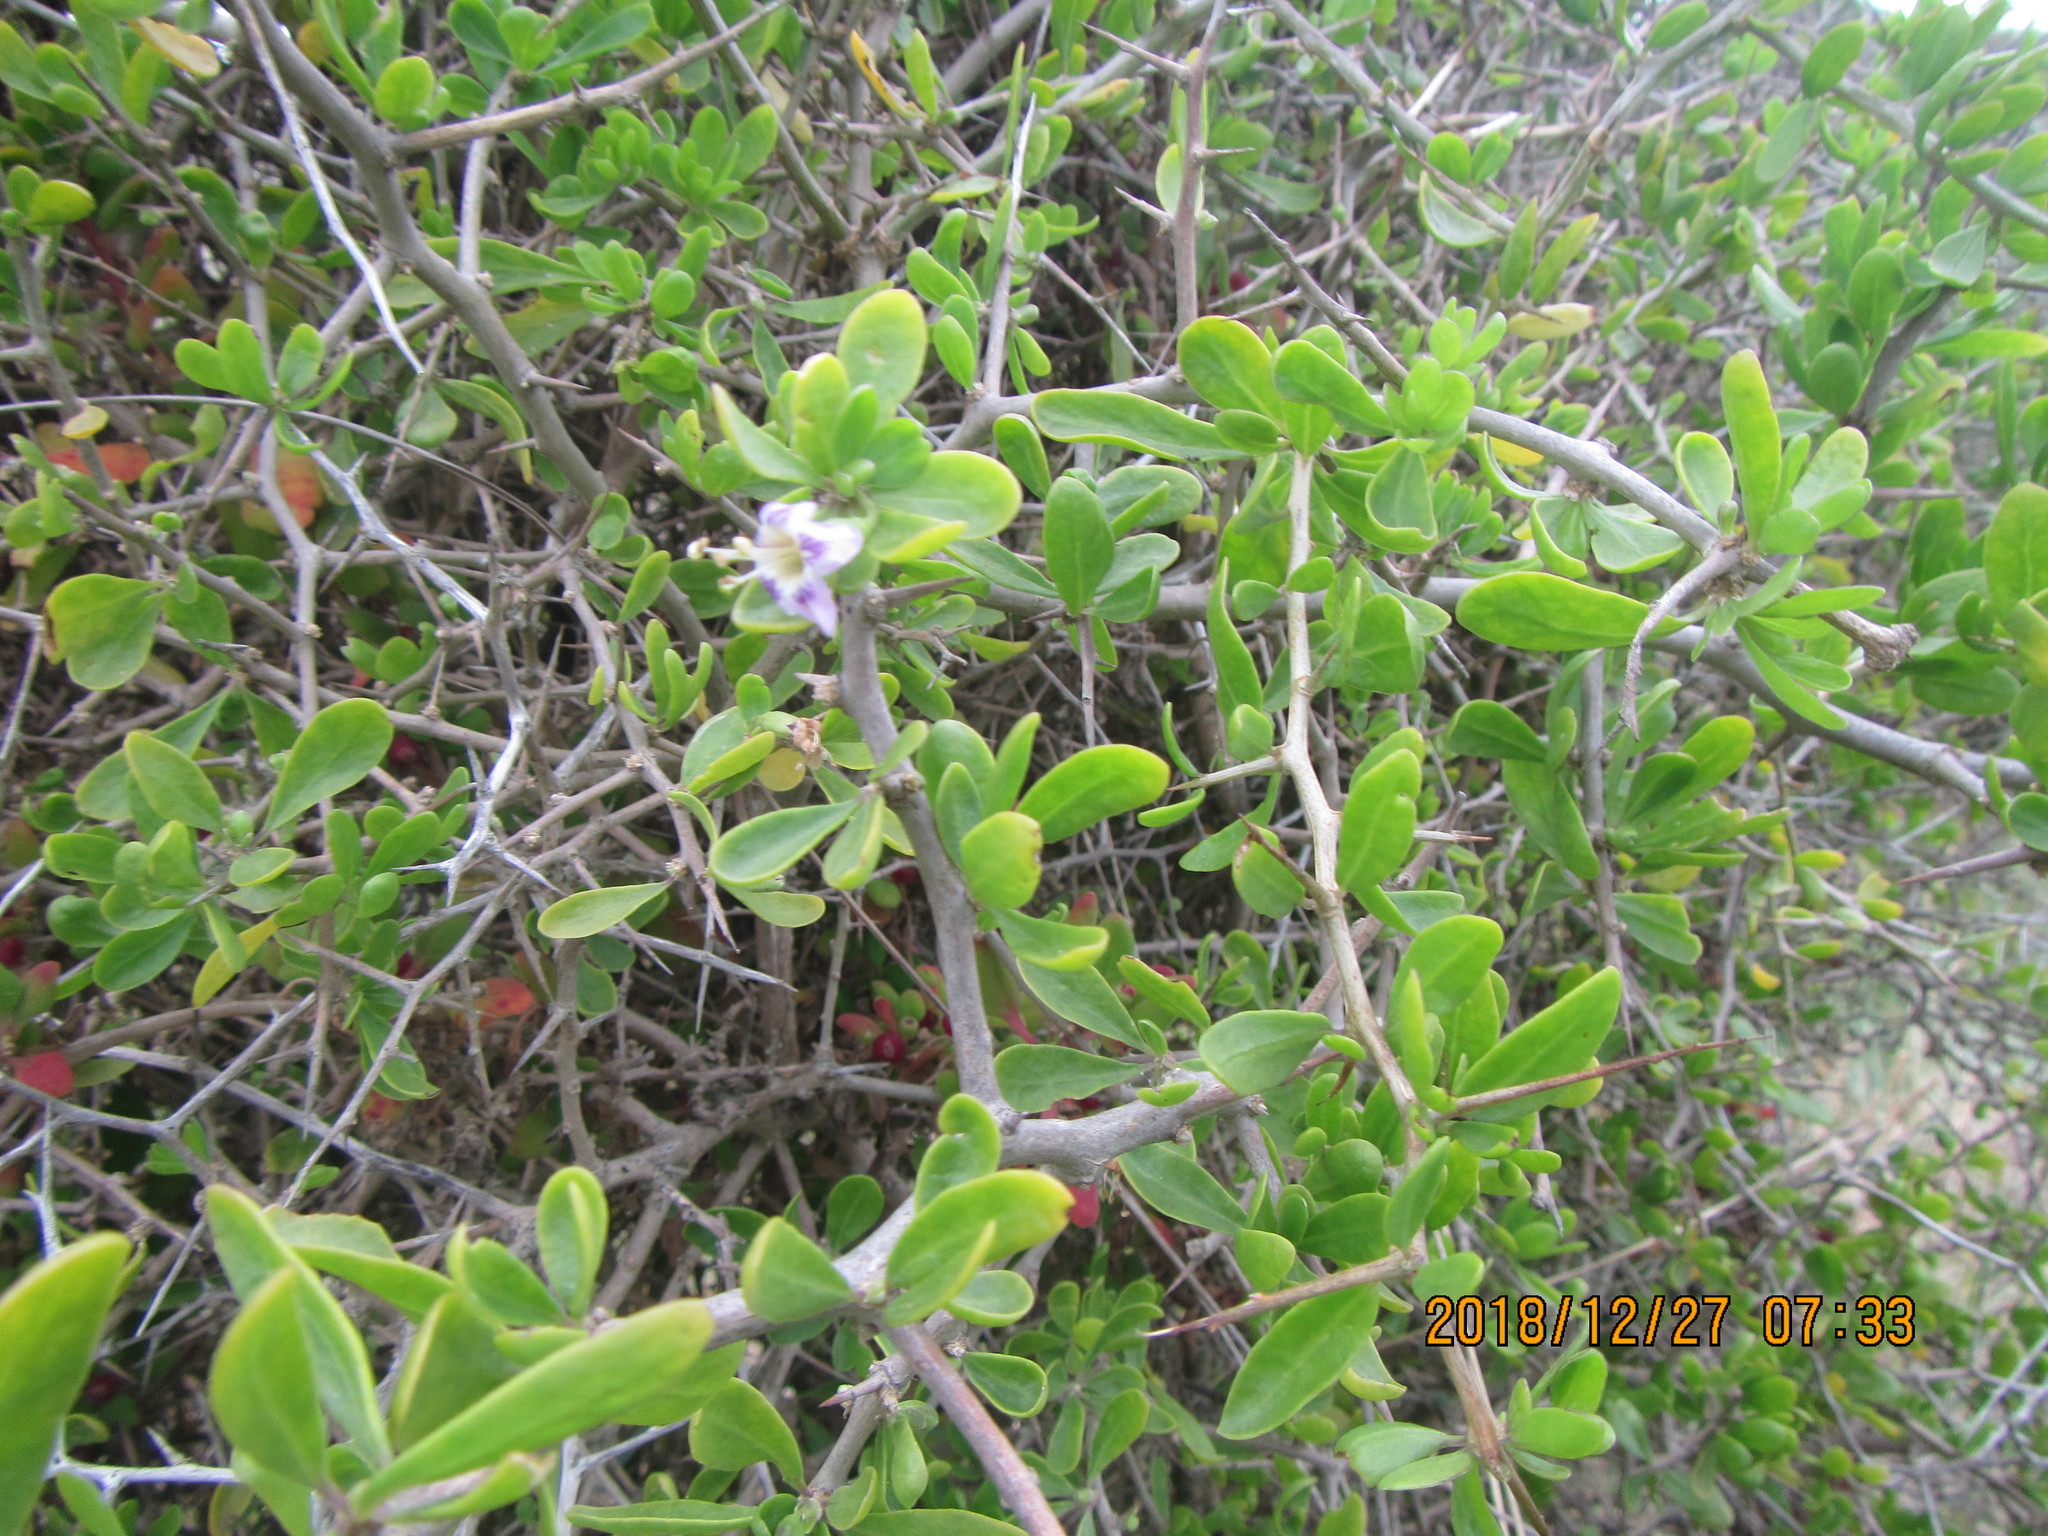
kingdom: Plantae
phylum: Tracheophyta
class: Magnoliopsida
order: Solanales
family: Solanaceae
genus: Lycium
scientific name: Lycium ferocissimum
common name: African boxthorn
